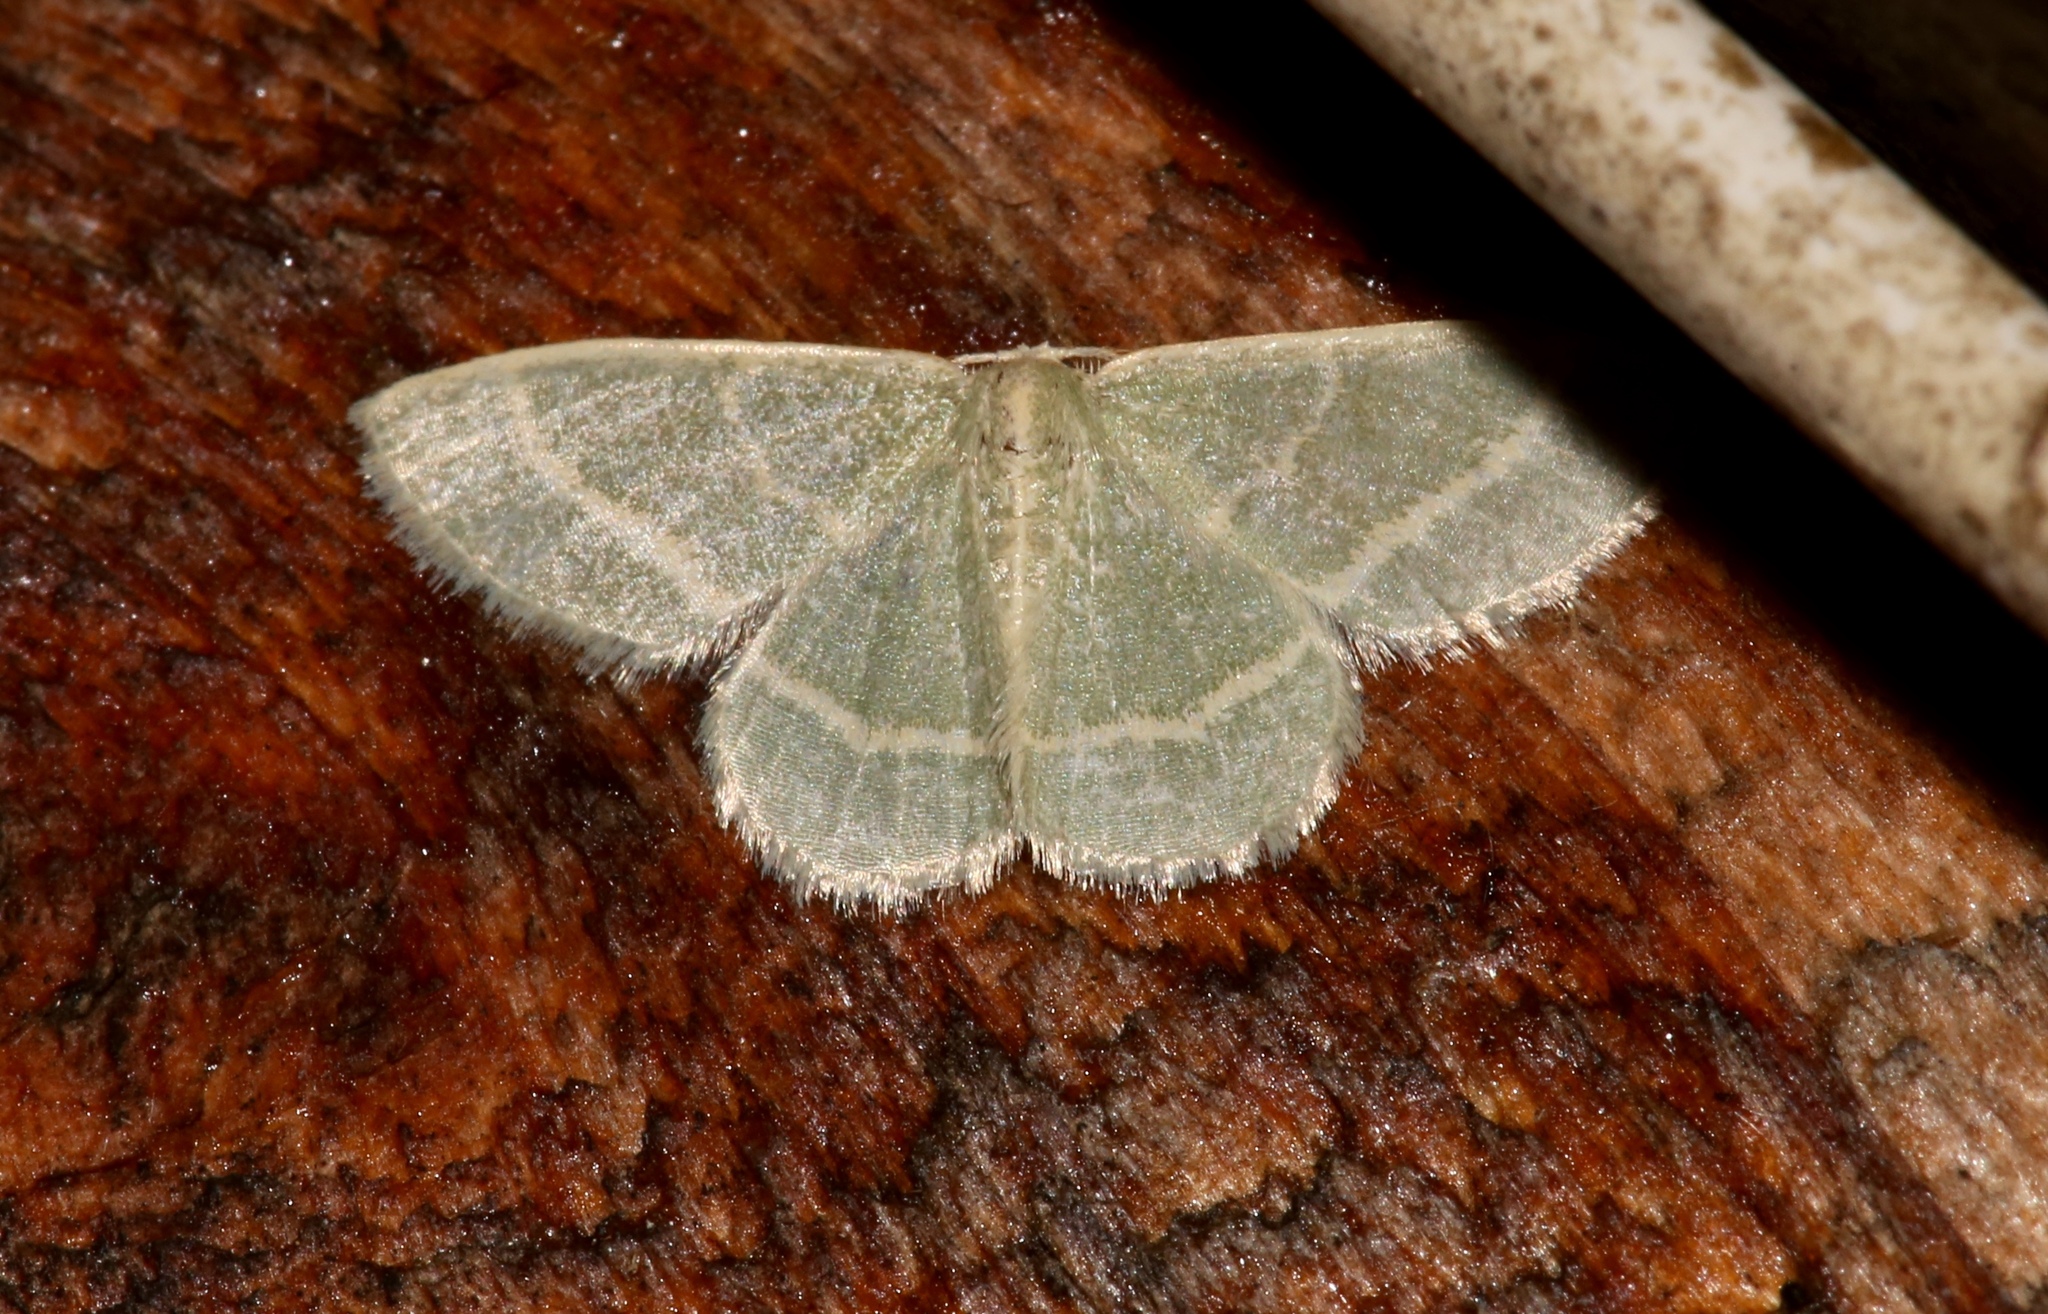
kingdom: Animalia
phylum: Arthropoda
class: Insecta
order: Lepidoptera
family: Geometridae
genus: Chlorochlamys
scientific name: Chlorochlamys chloroleucaria
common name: Blackberry looper
